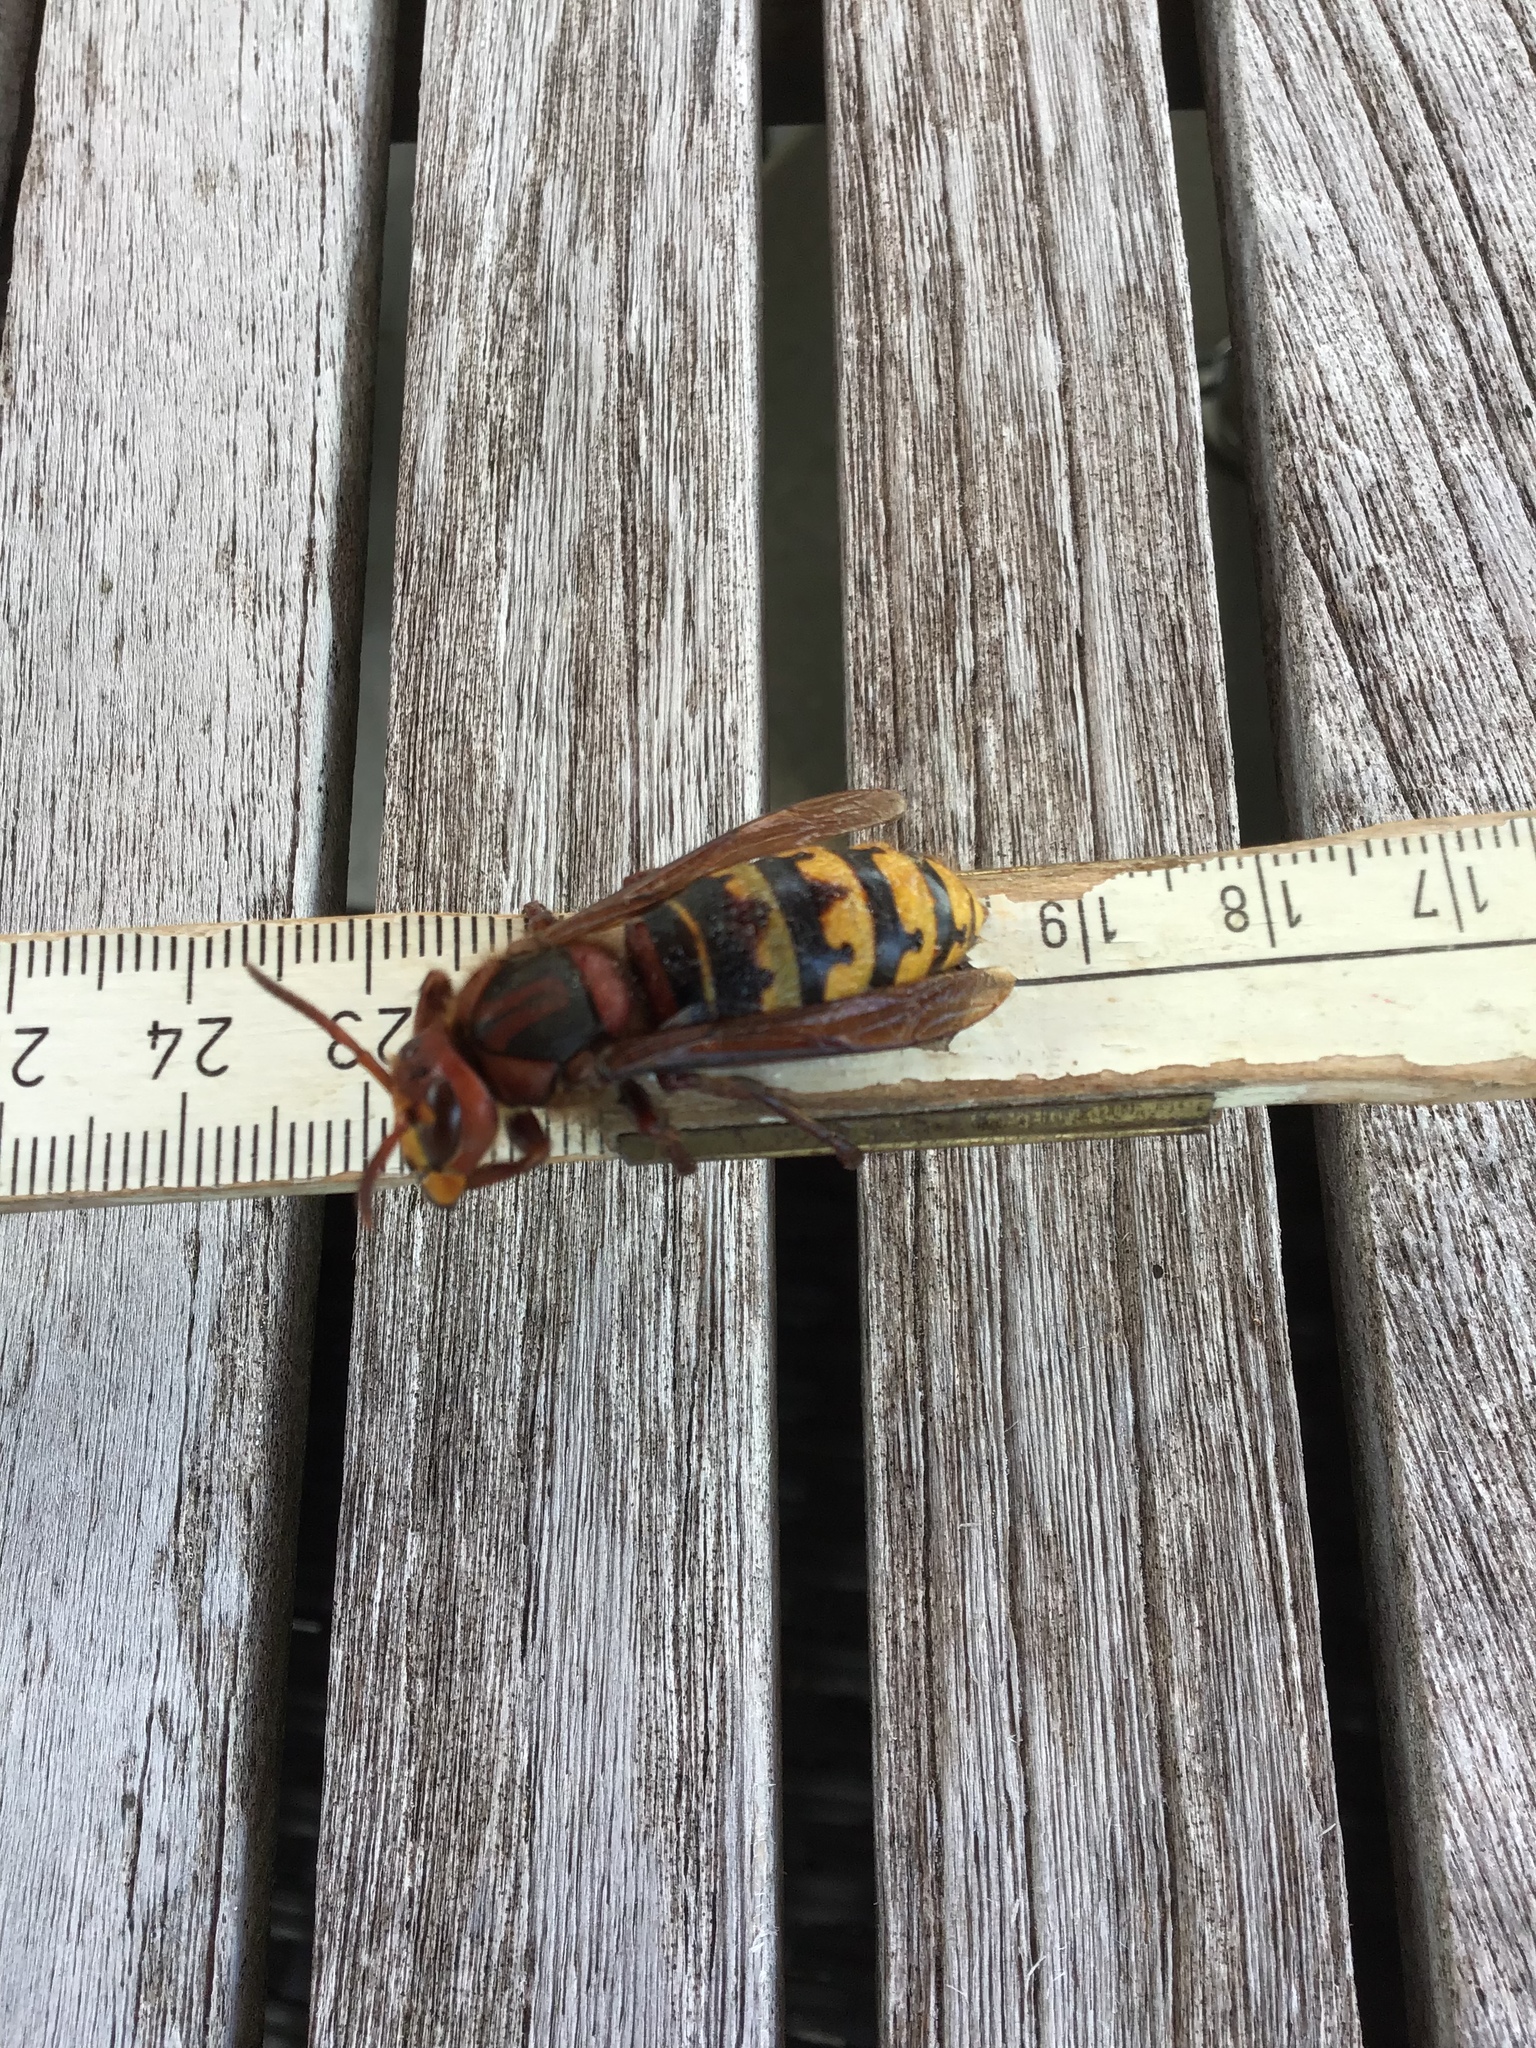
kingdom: Animalia
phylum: Arthropoda
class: Insecta
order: Hymenoptera
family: Vespidae
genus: Vespa
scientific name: Vespa crabro
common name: Hornet
